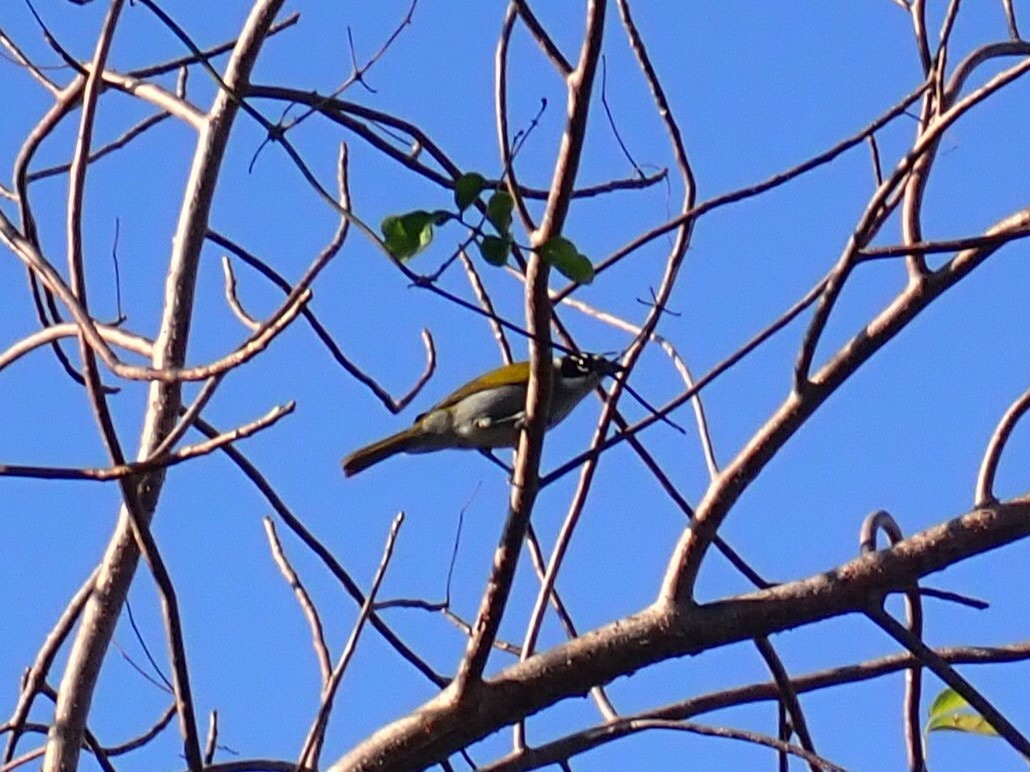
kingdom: Animalia
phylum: Chordata
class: Aves
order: Passeriformes
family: Phaenicophilidae
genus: Phaenicophilus
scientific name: Phaenicophilus palmarum
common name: Black-crowned palm-tanager
